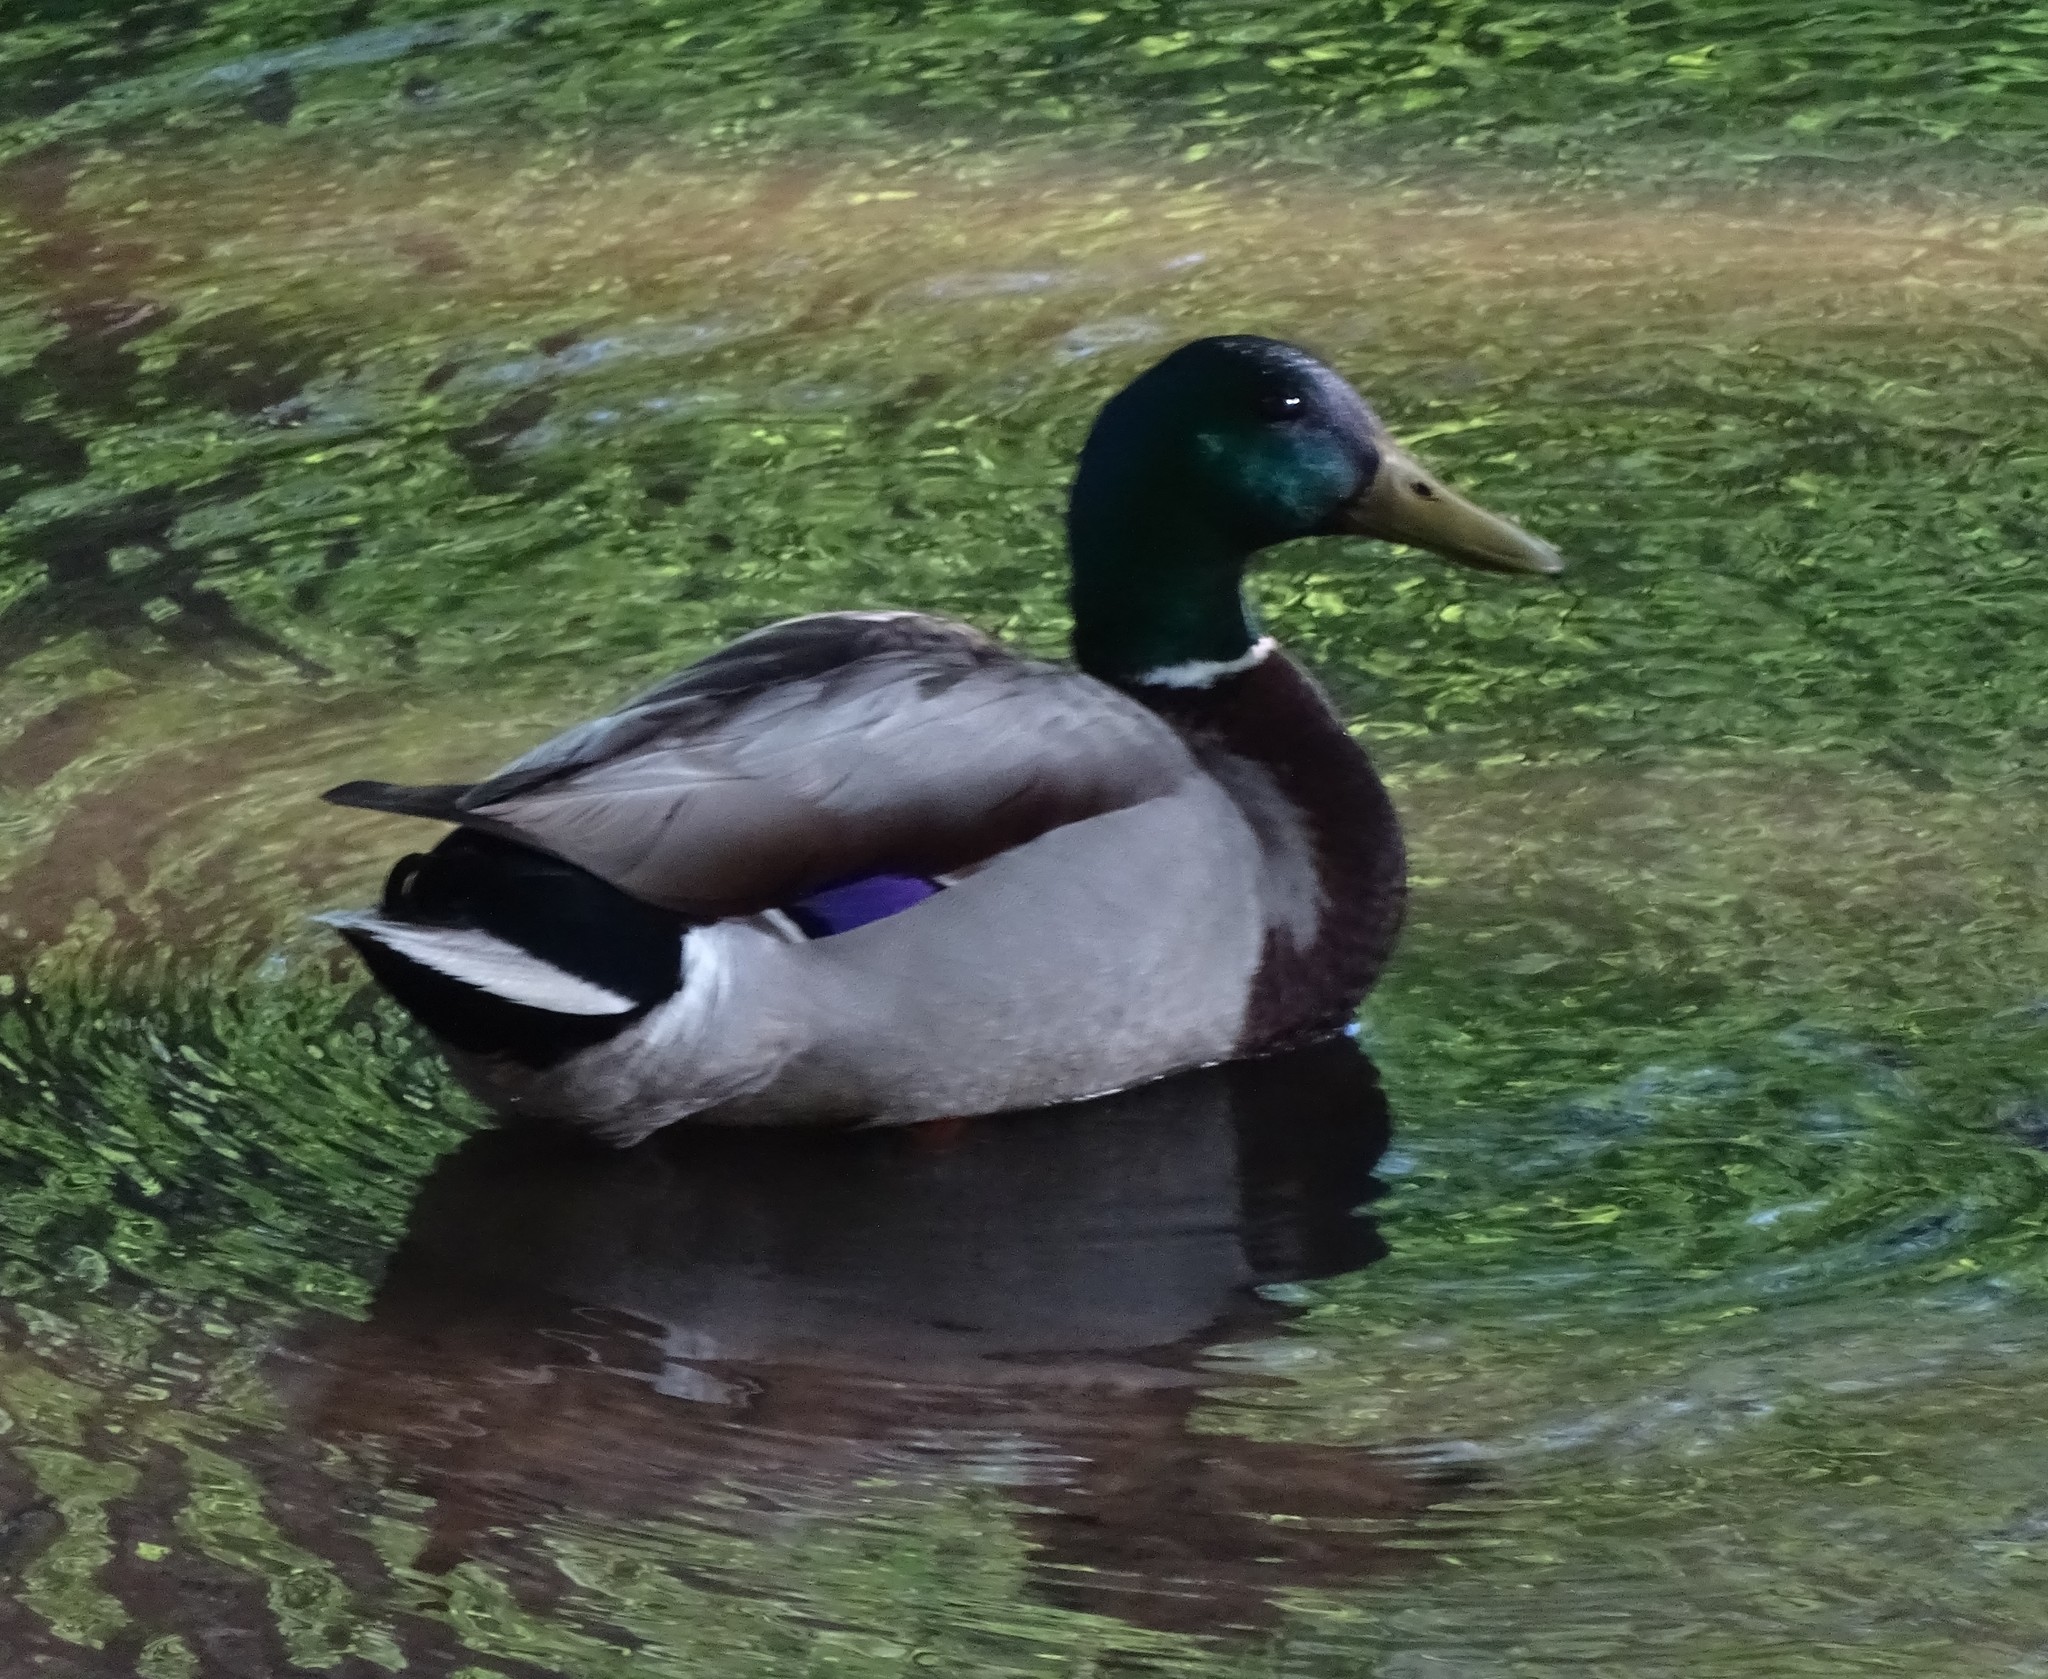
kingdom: Animalia
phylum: Chordata
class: Aves
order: Anseriformes
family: Anatidae
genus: Anas
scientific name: Anas platyrhynchos
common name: Mallard
